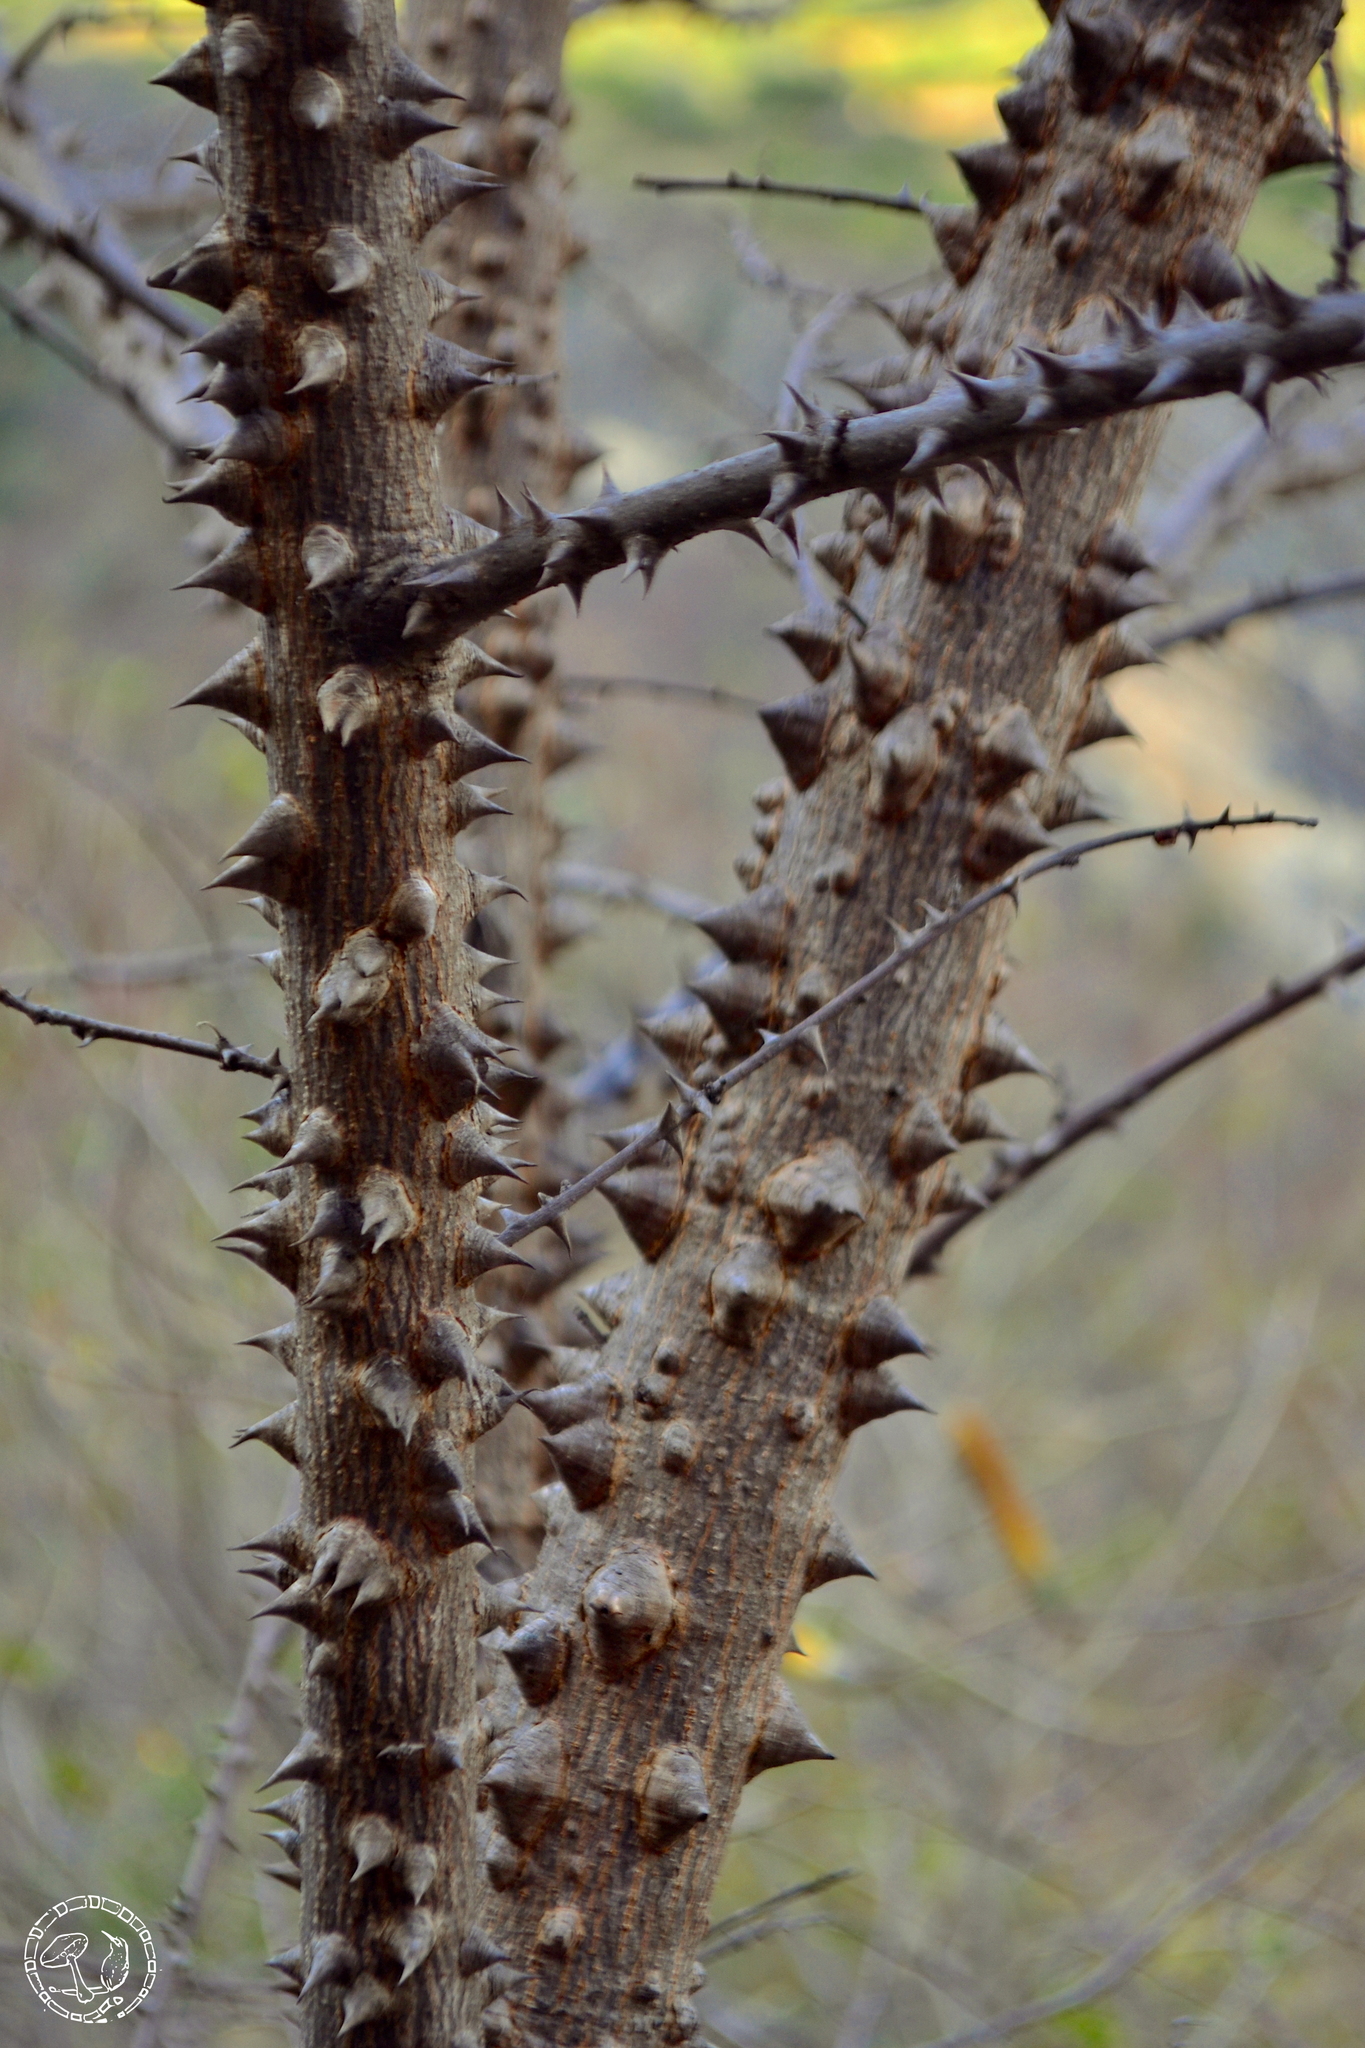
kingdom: Plantae
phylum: Tracheophyta
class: Magnoliopsida
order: Malvales
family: Malvaceae
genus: Ceiba
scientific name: Ceiba aesculifolia
